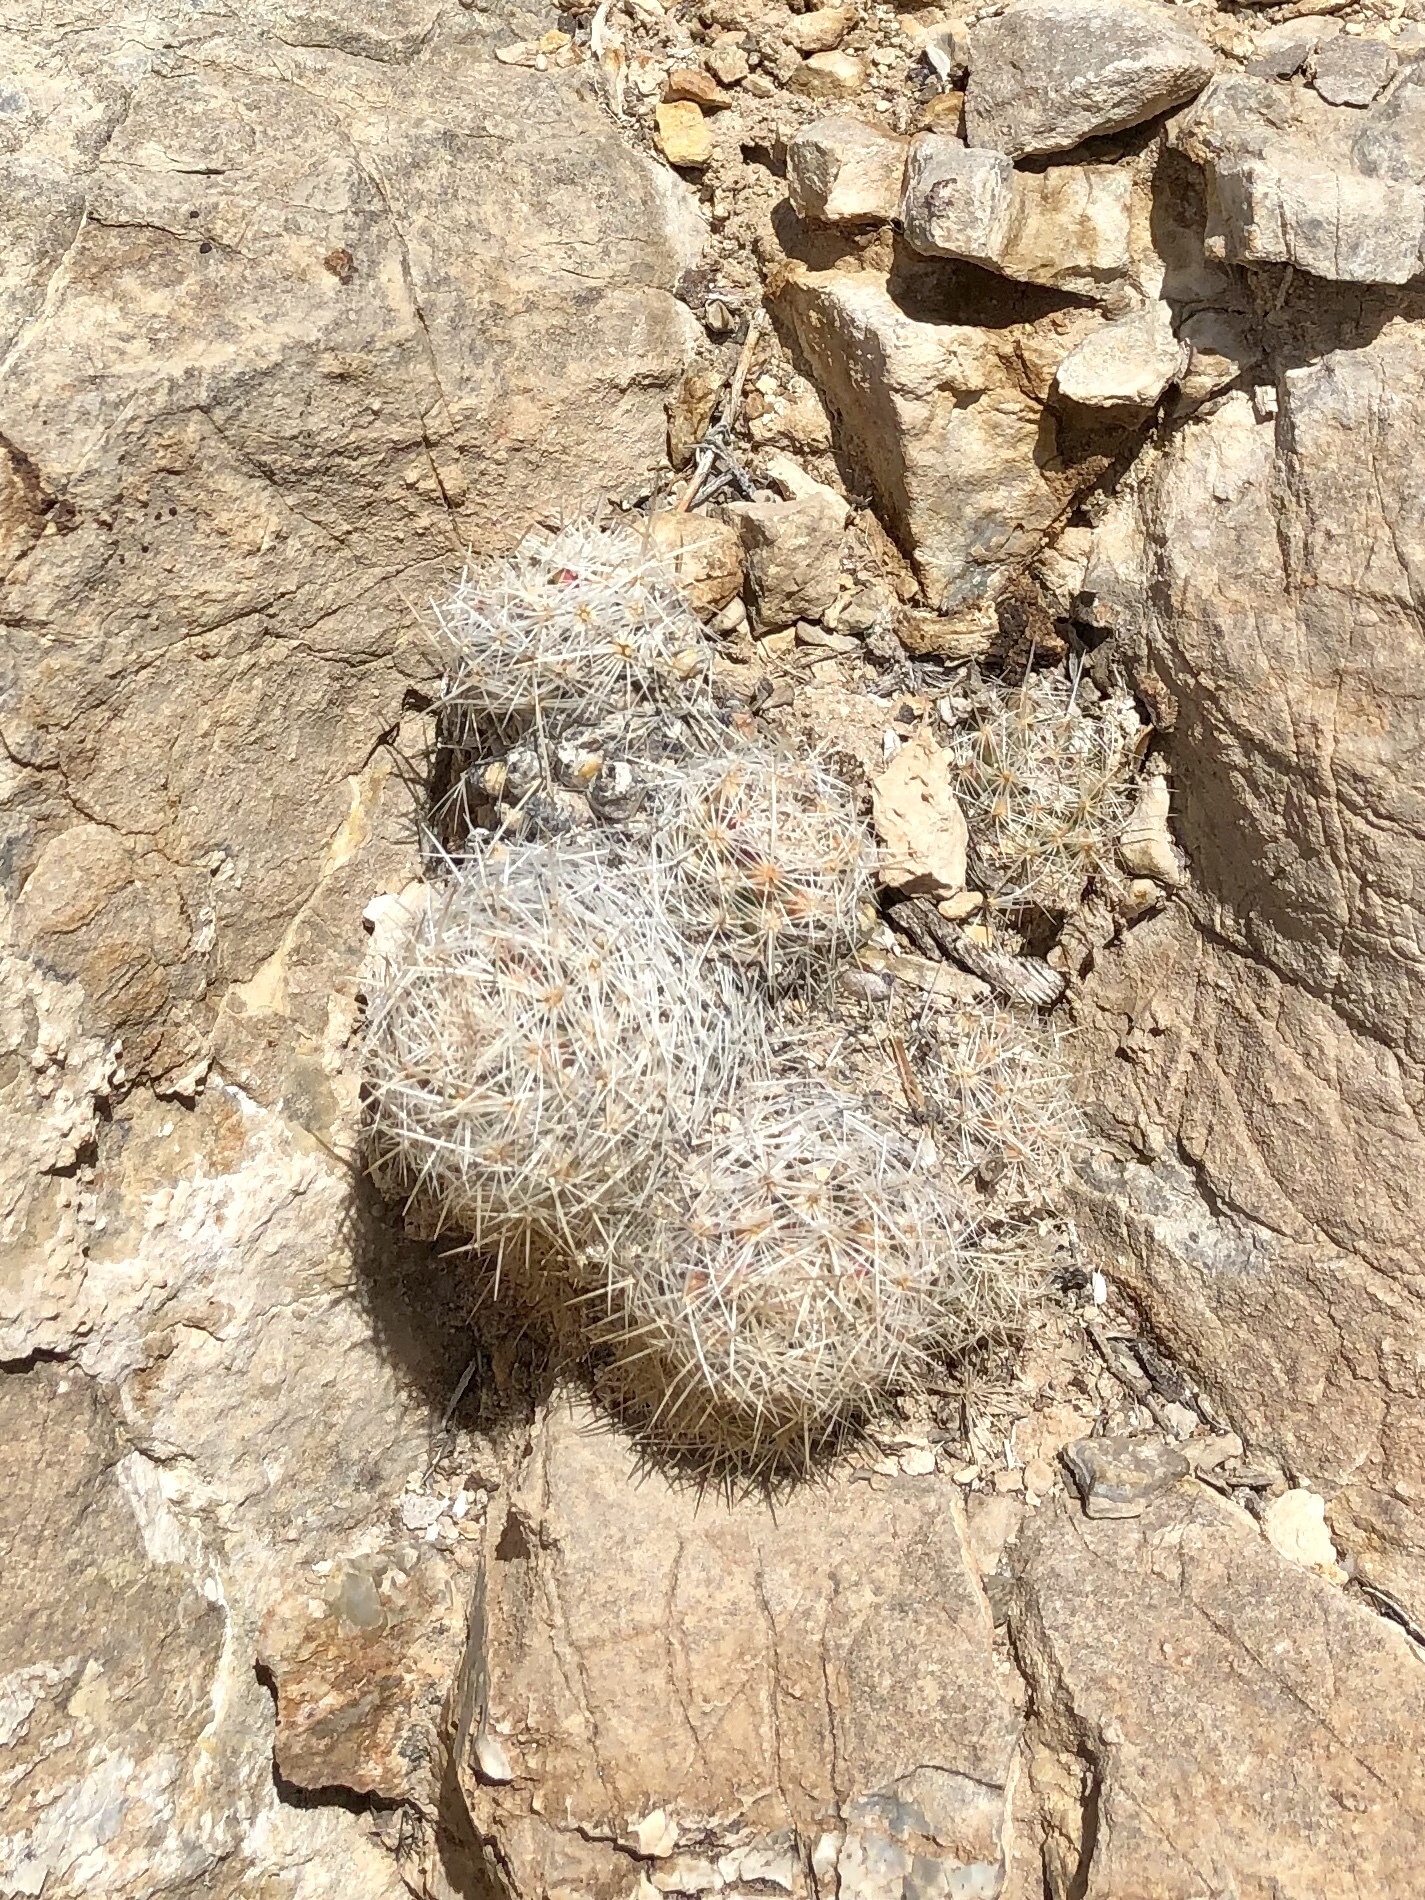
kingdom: Plantae
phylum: Tracheophyta
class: Magnoliopsida
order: Caryophyllales
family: Cactaceae
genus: Pelecyphora
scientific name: Pelecyphora tuberculosa
